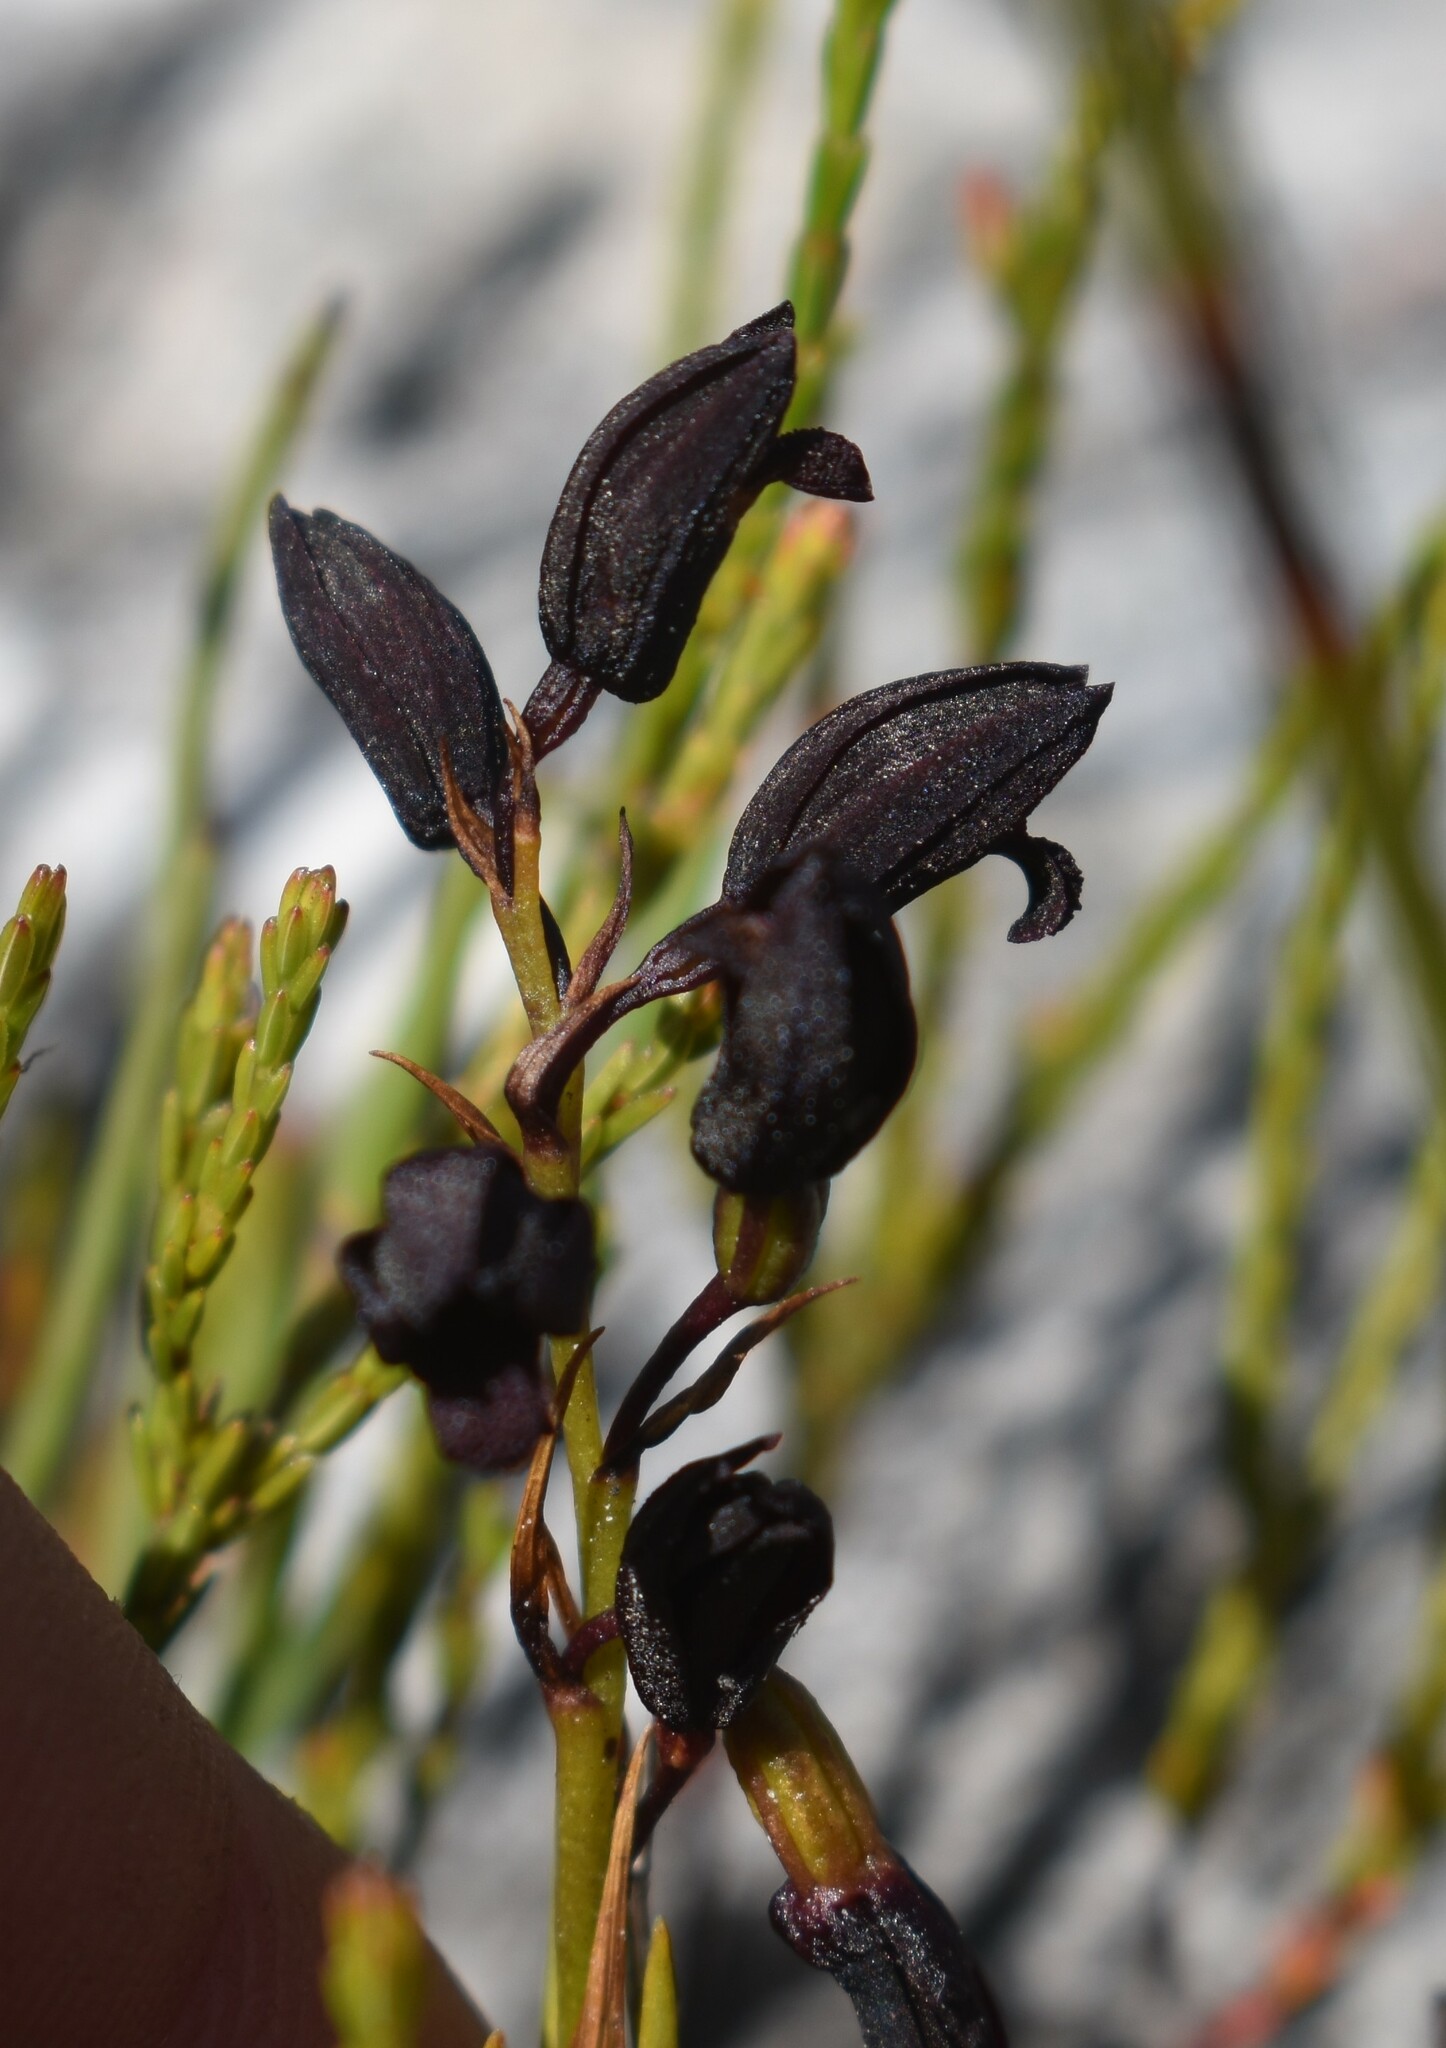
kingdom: Plantae
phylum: Tracheophyta
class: Liliopsida
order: Asparagales
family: Orchidaceae
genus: Eulophia
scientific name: Eulophia ustulata
